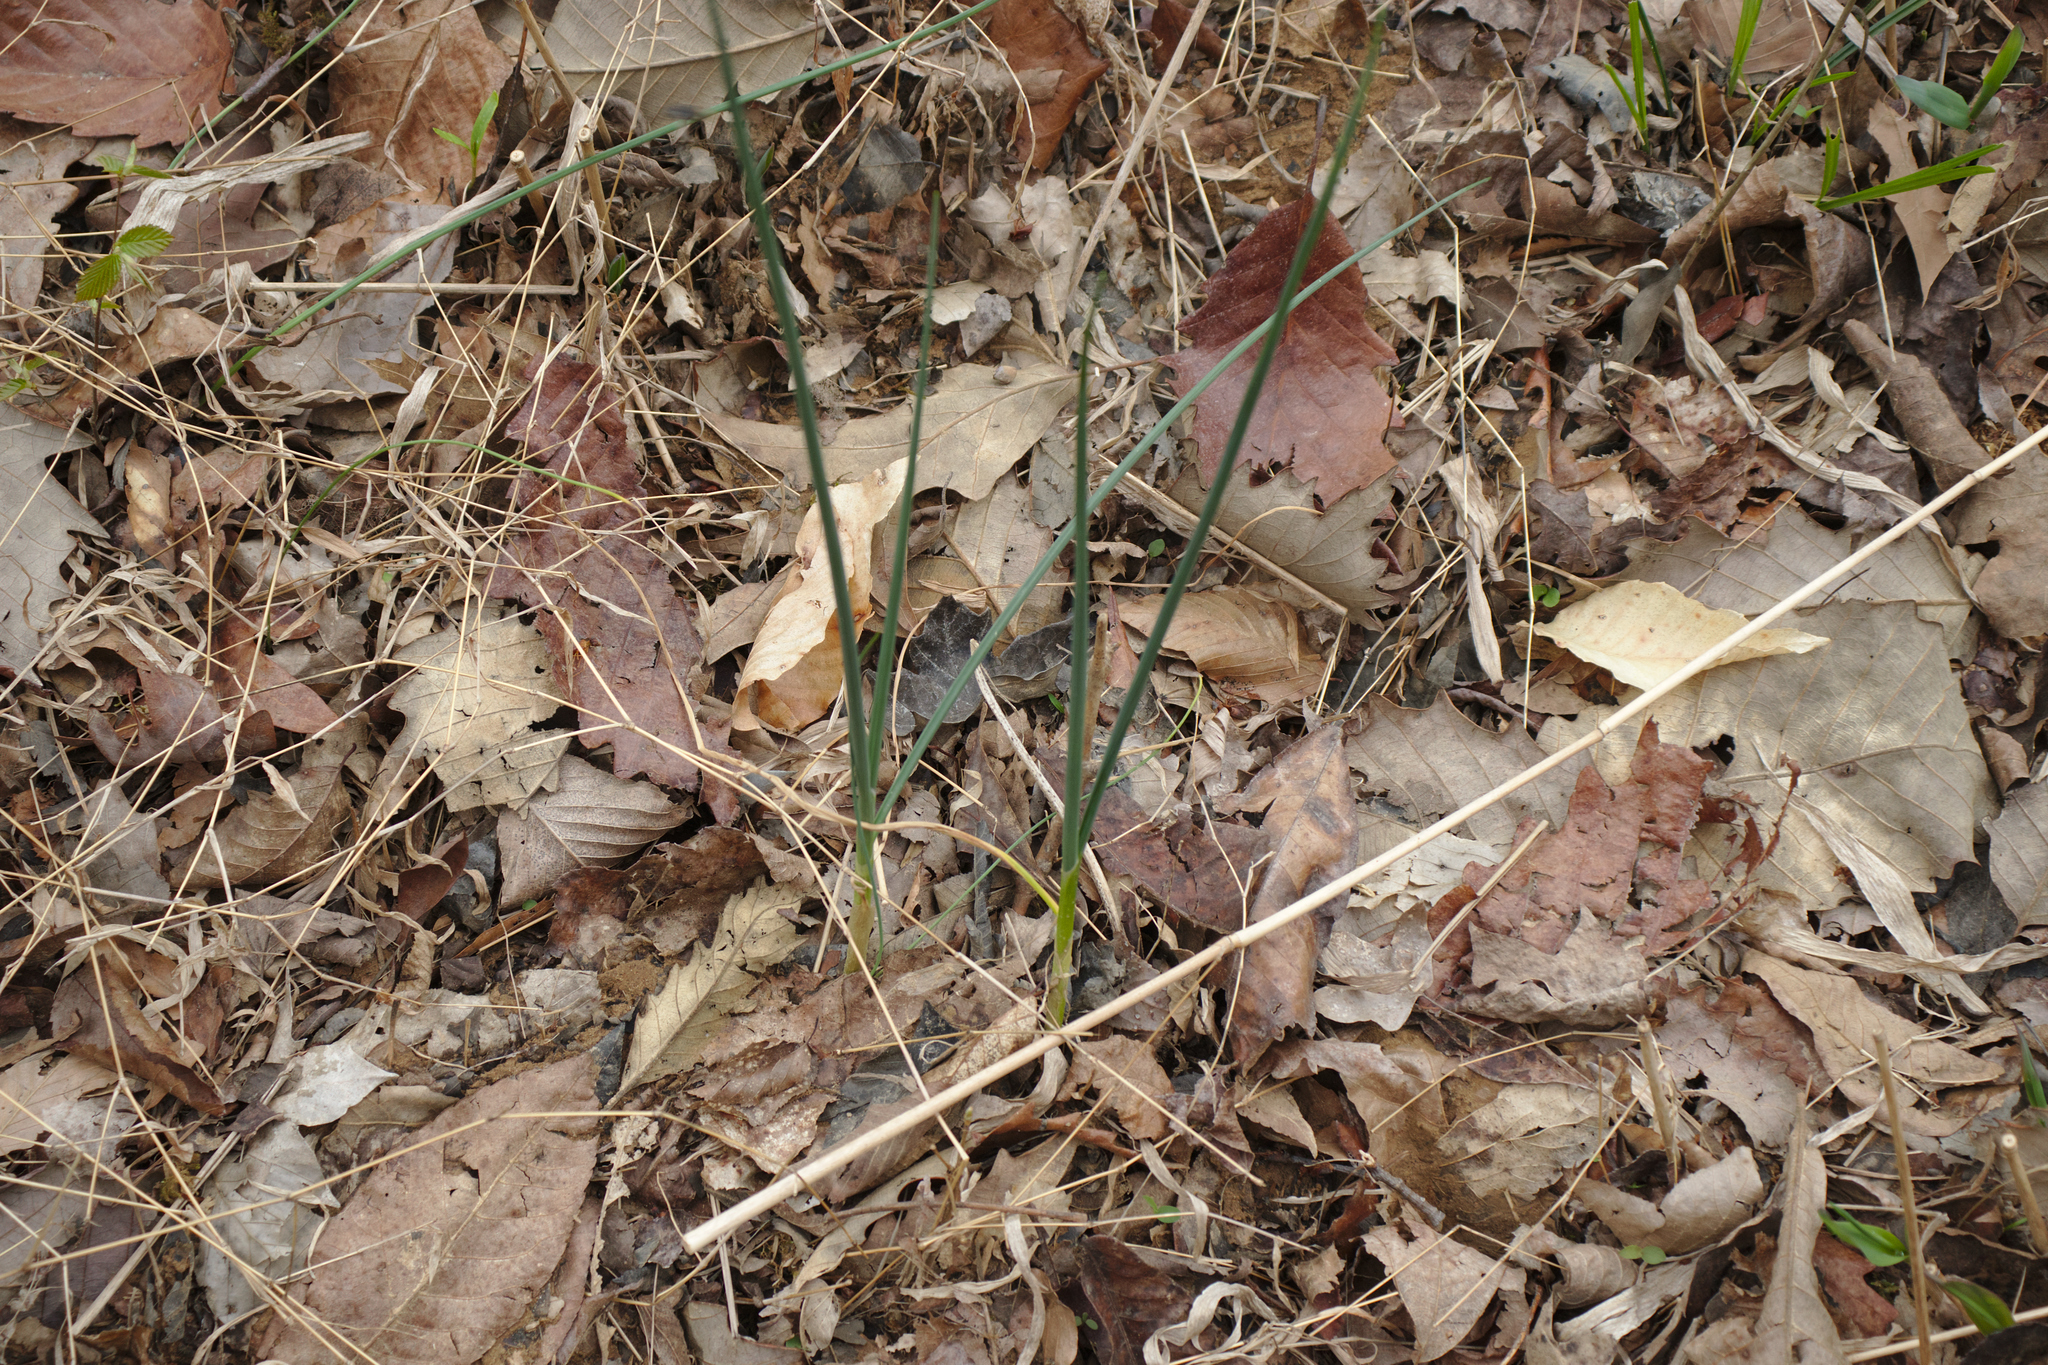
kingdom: Plantae
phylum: Tracheophyta
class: Liliopsida
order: Asparagales
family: Amaryllidaceae
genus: Allium
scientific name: Allium vineale
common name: Crow garlic
